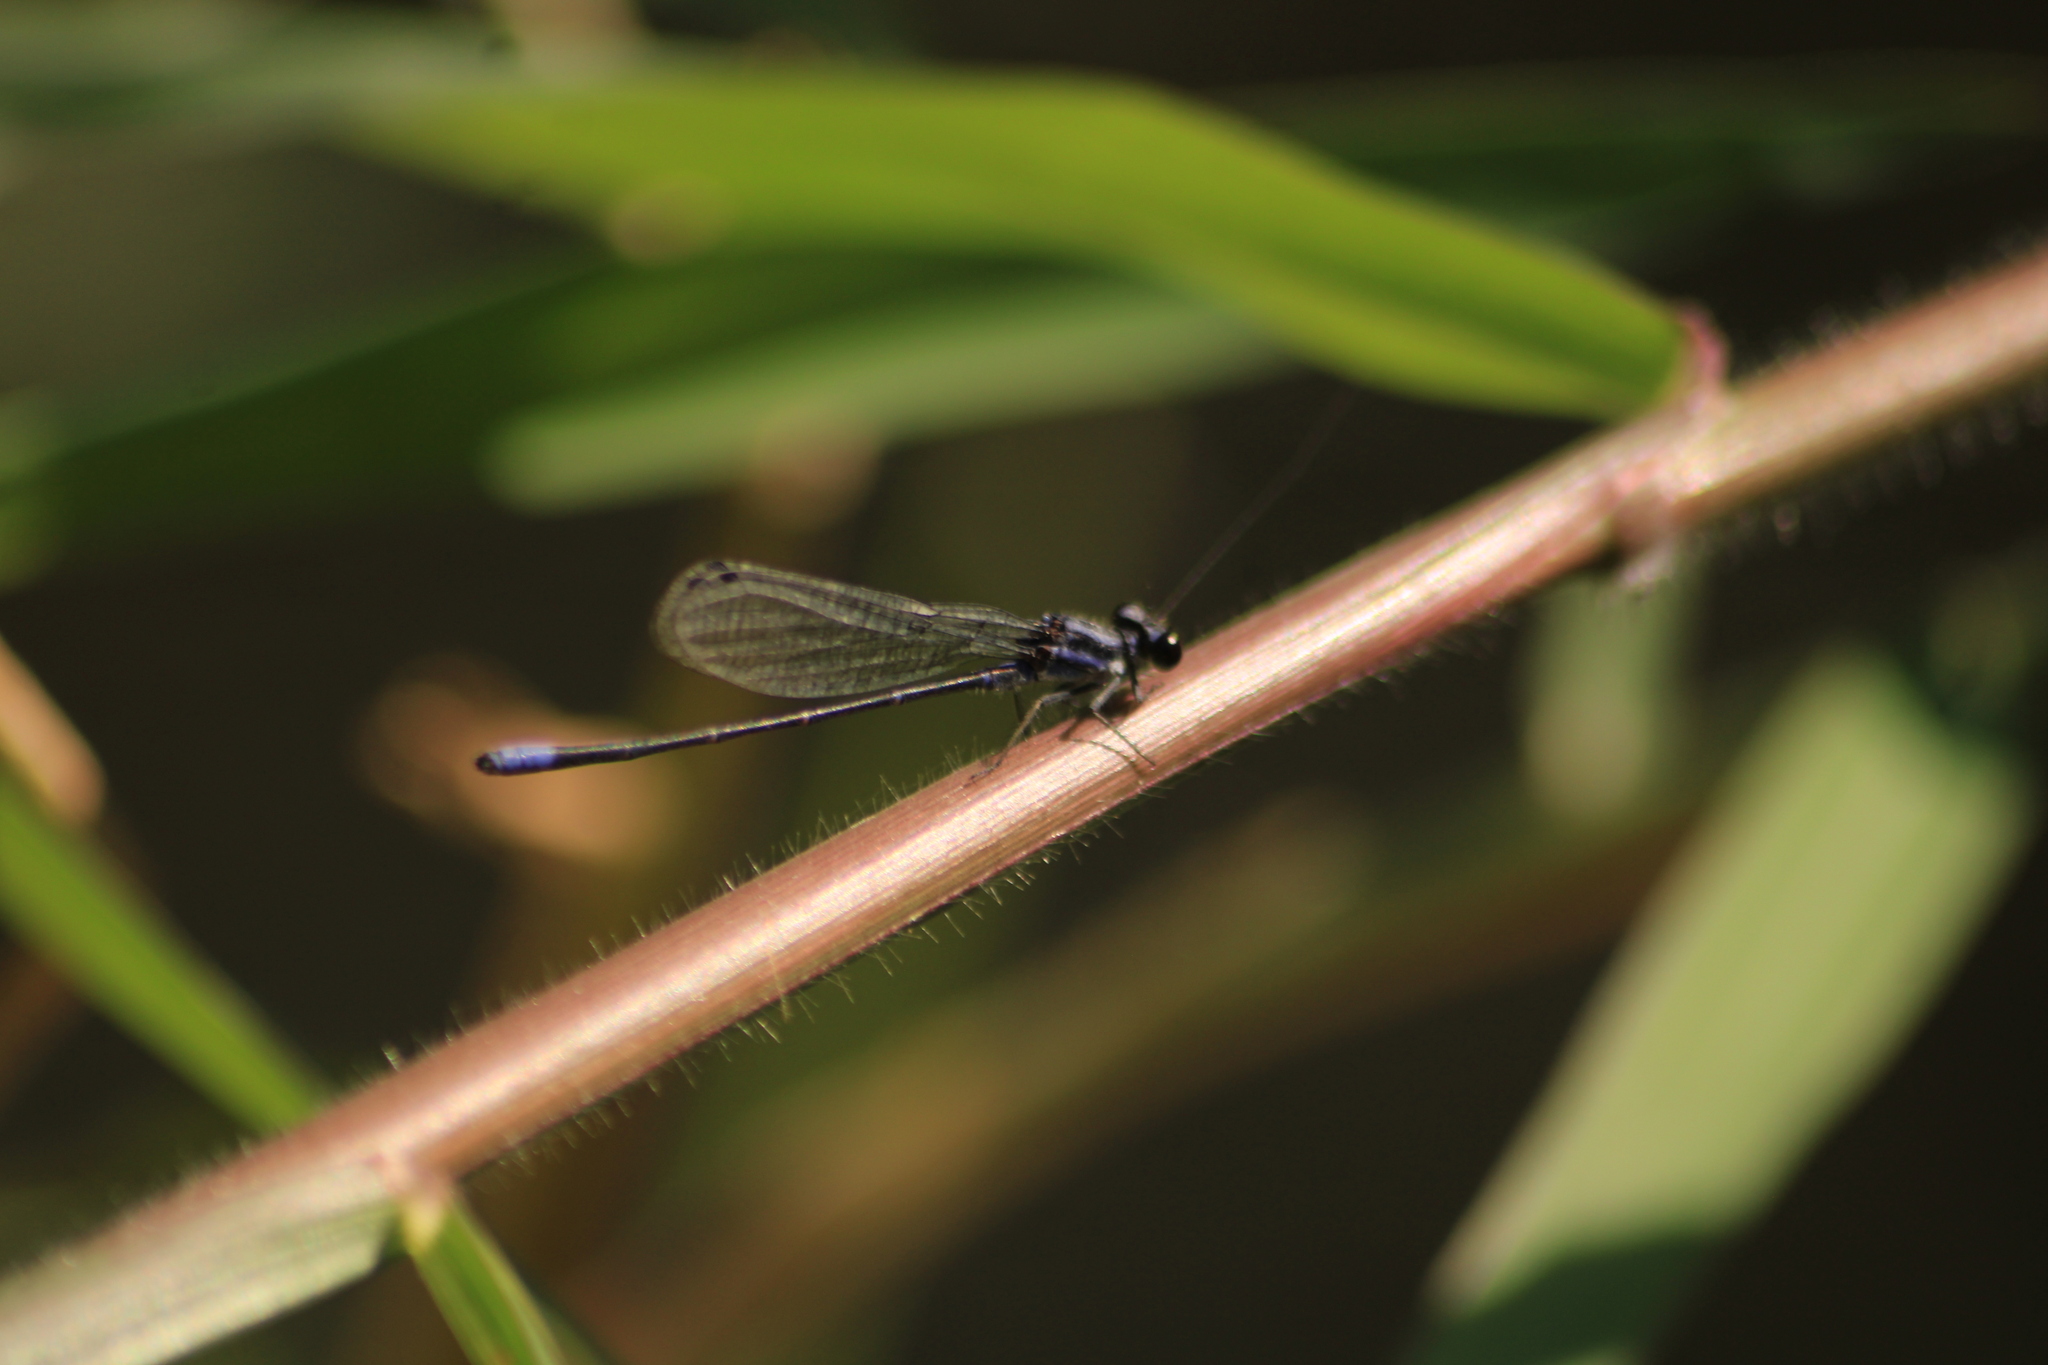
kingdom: Animalia
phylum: Arthropoda
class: Insecta
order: Odonata
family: Coenagrionidae
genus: Argia
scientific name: Argia pulla
